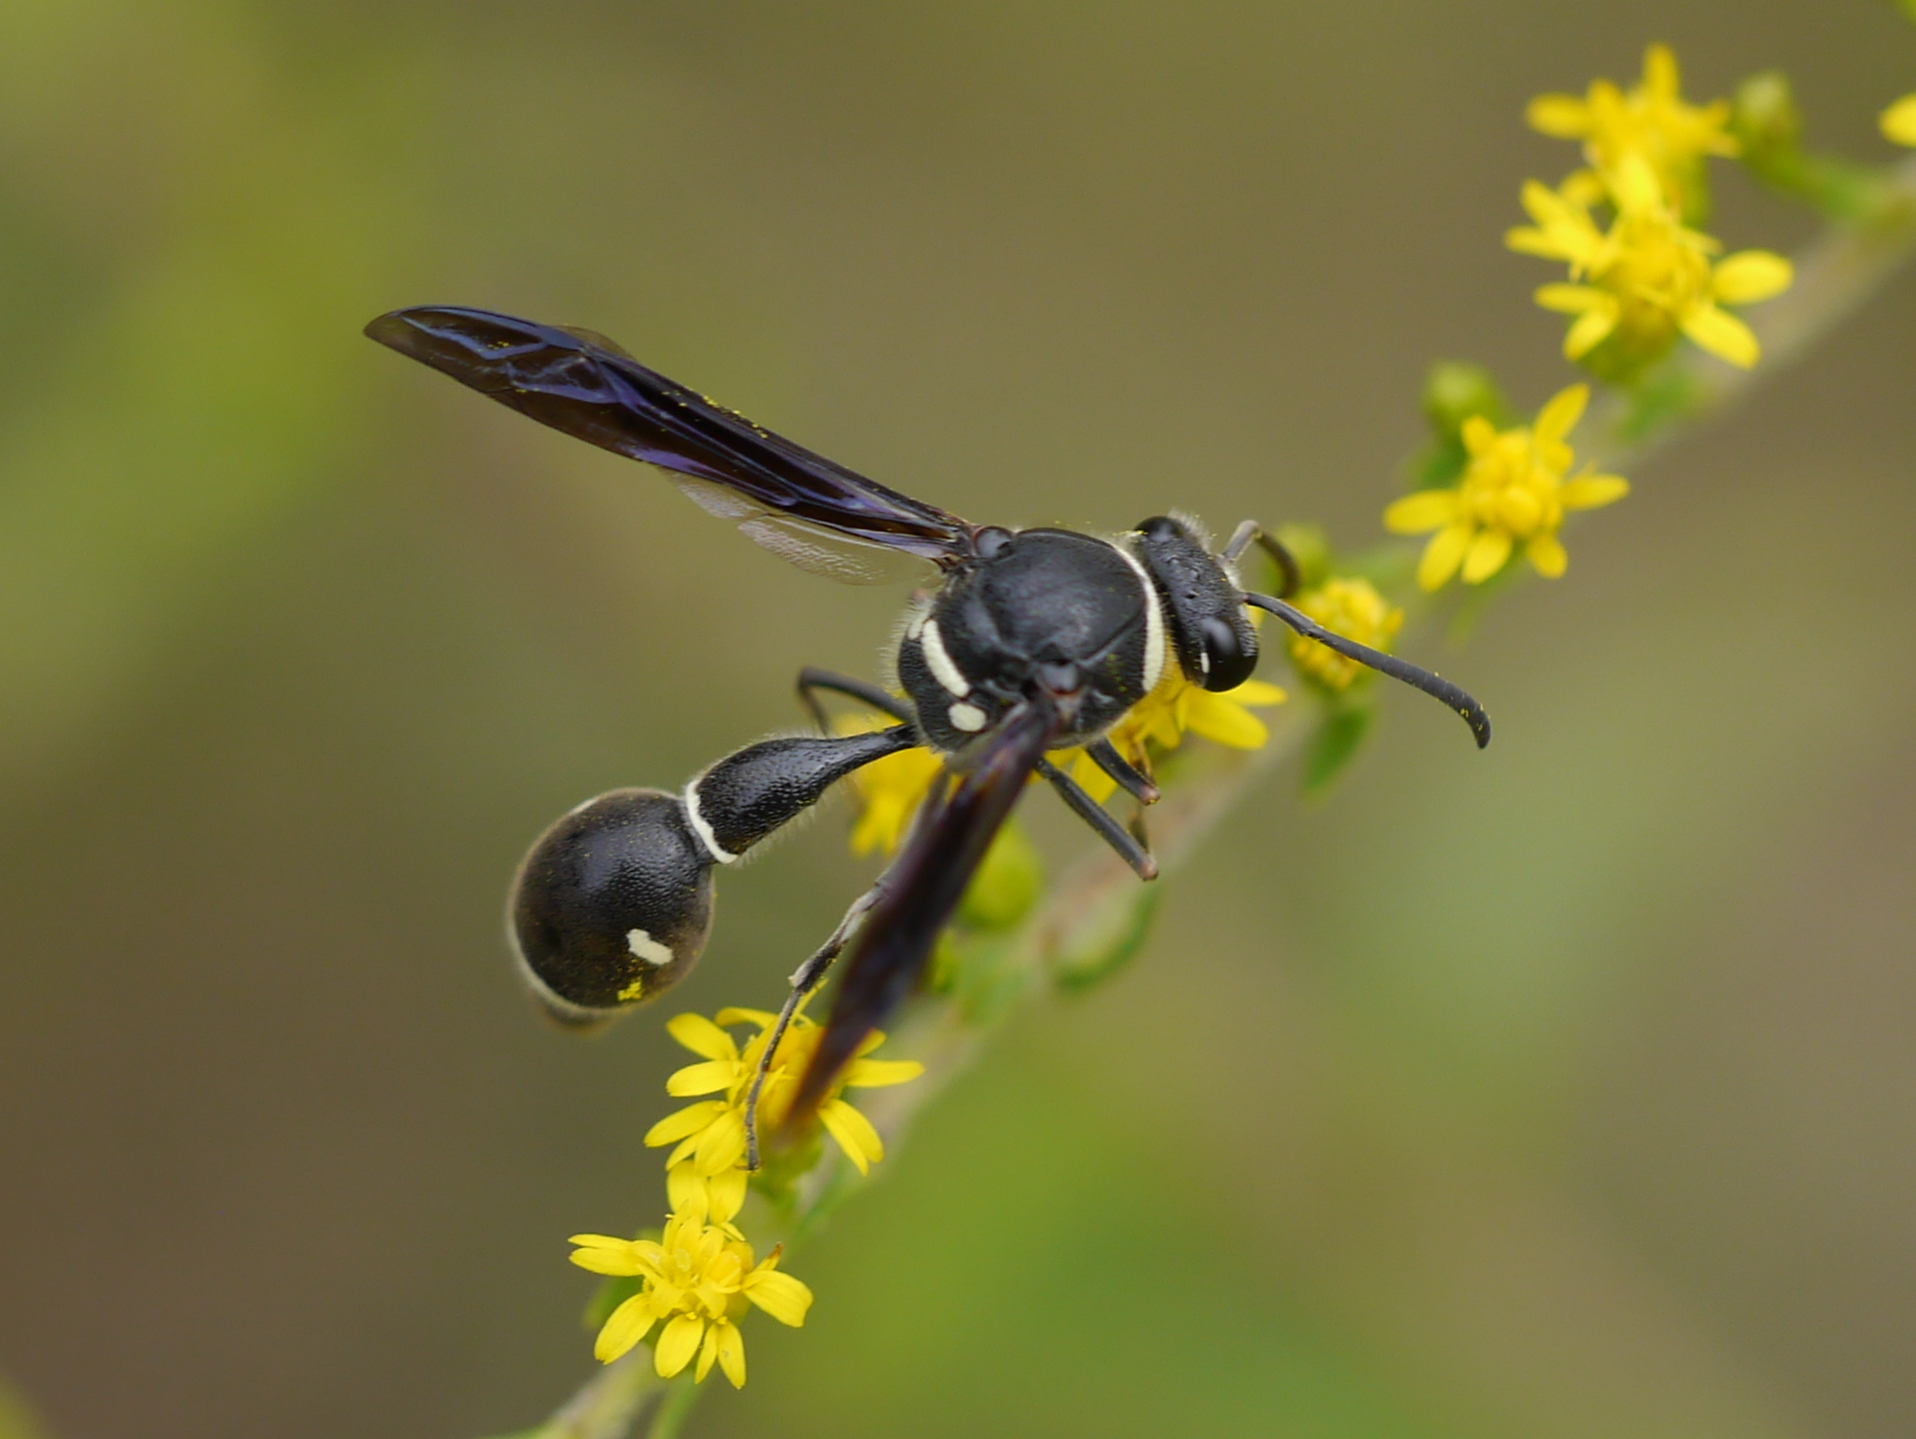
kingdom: Animalia
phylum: Arthropoda
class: Insecta
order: Hymenoptera
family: Vespidae
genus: Eumenes
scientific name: Eumenes fraternus
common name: Fraternal potter wasp
